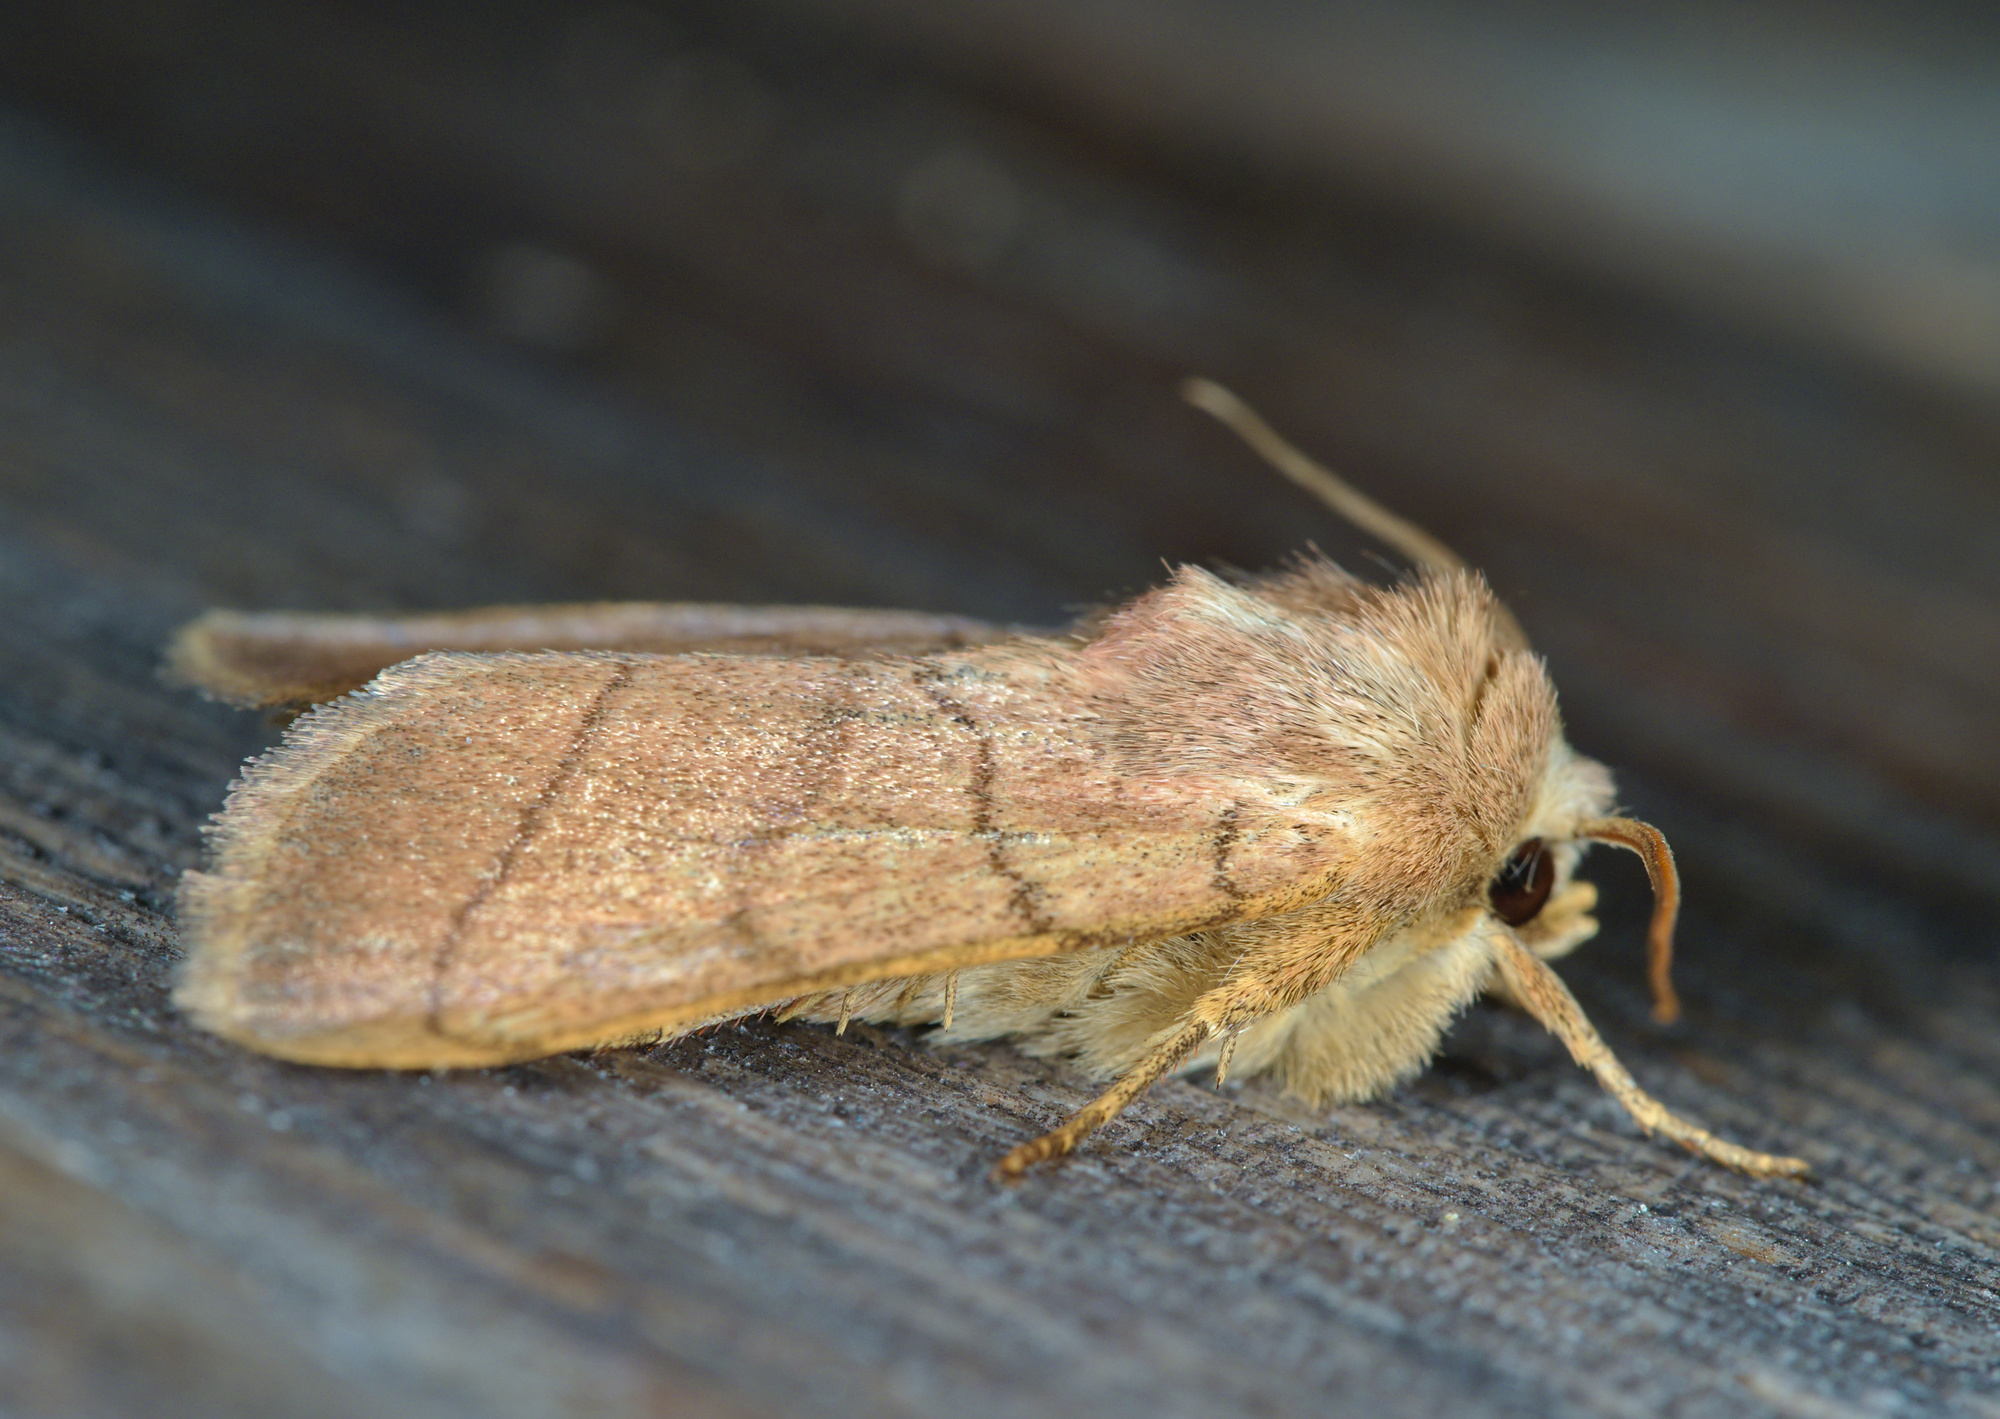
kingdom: Animalia
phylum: Arthropoda
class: Insecta
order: Lepidoptera
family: Noctuidae
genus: Charanyca
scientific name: Charanyca trigrammica
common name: Treble lines
